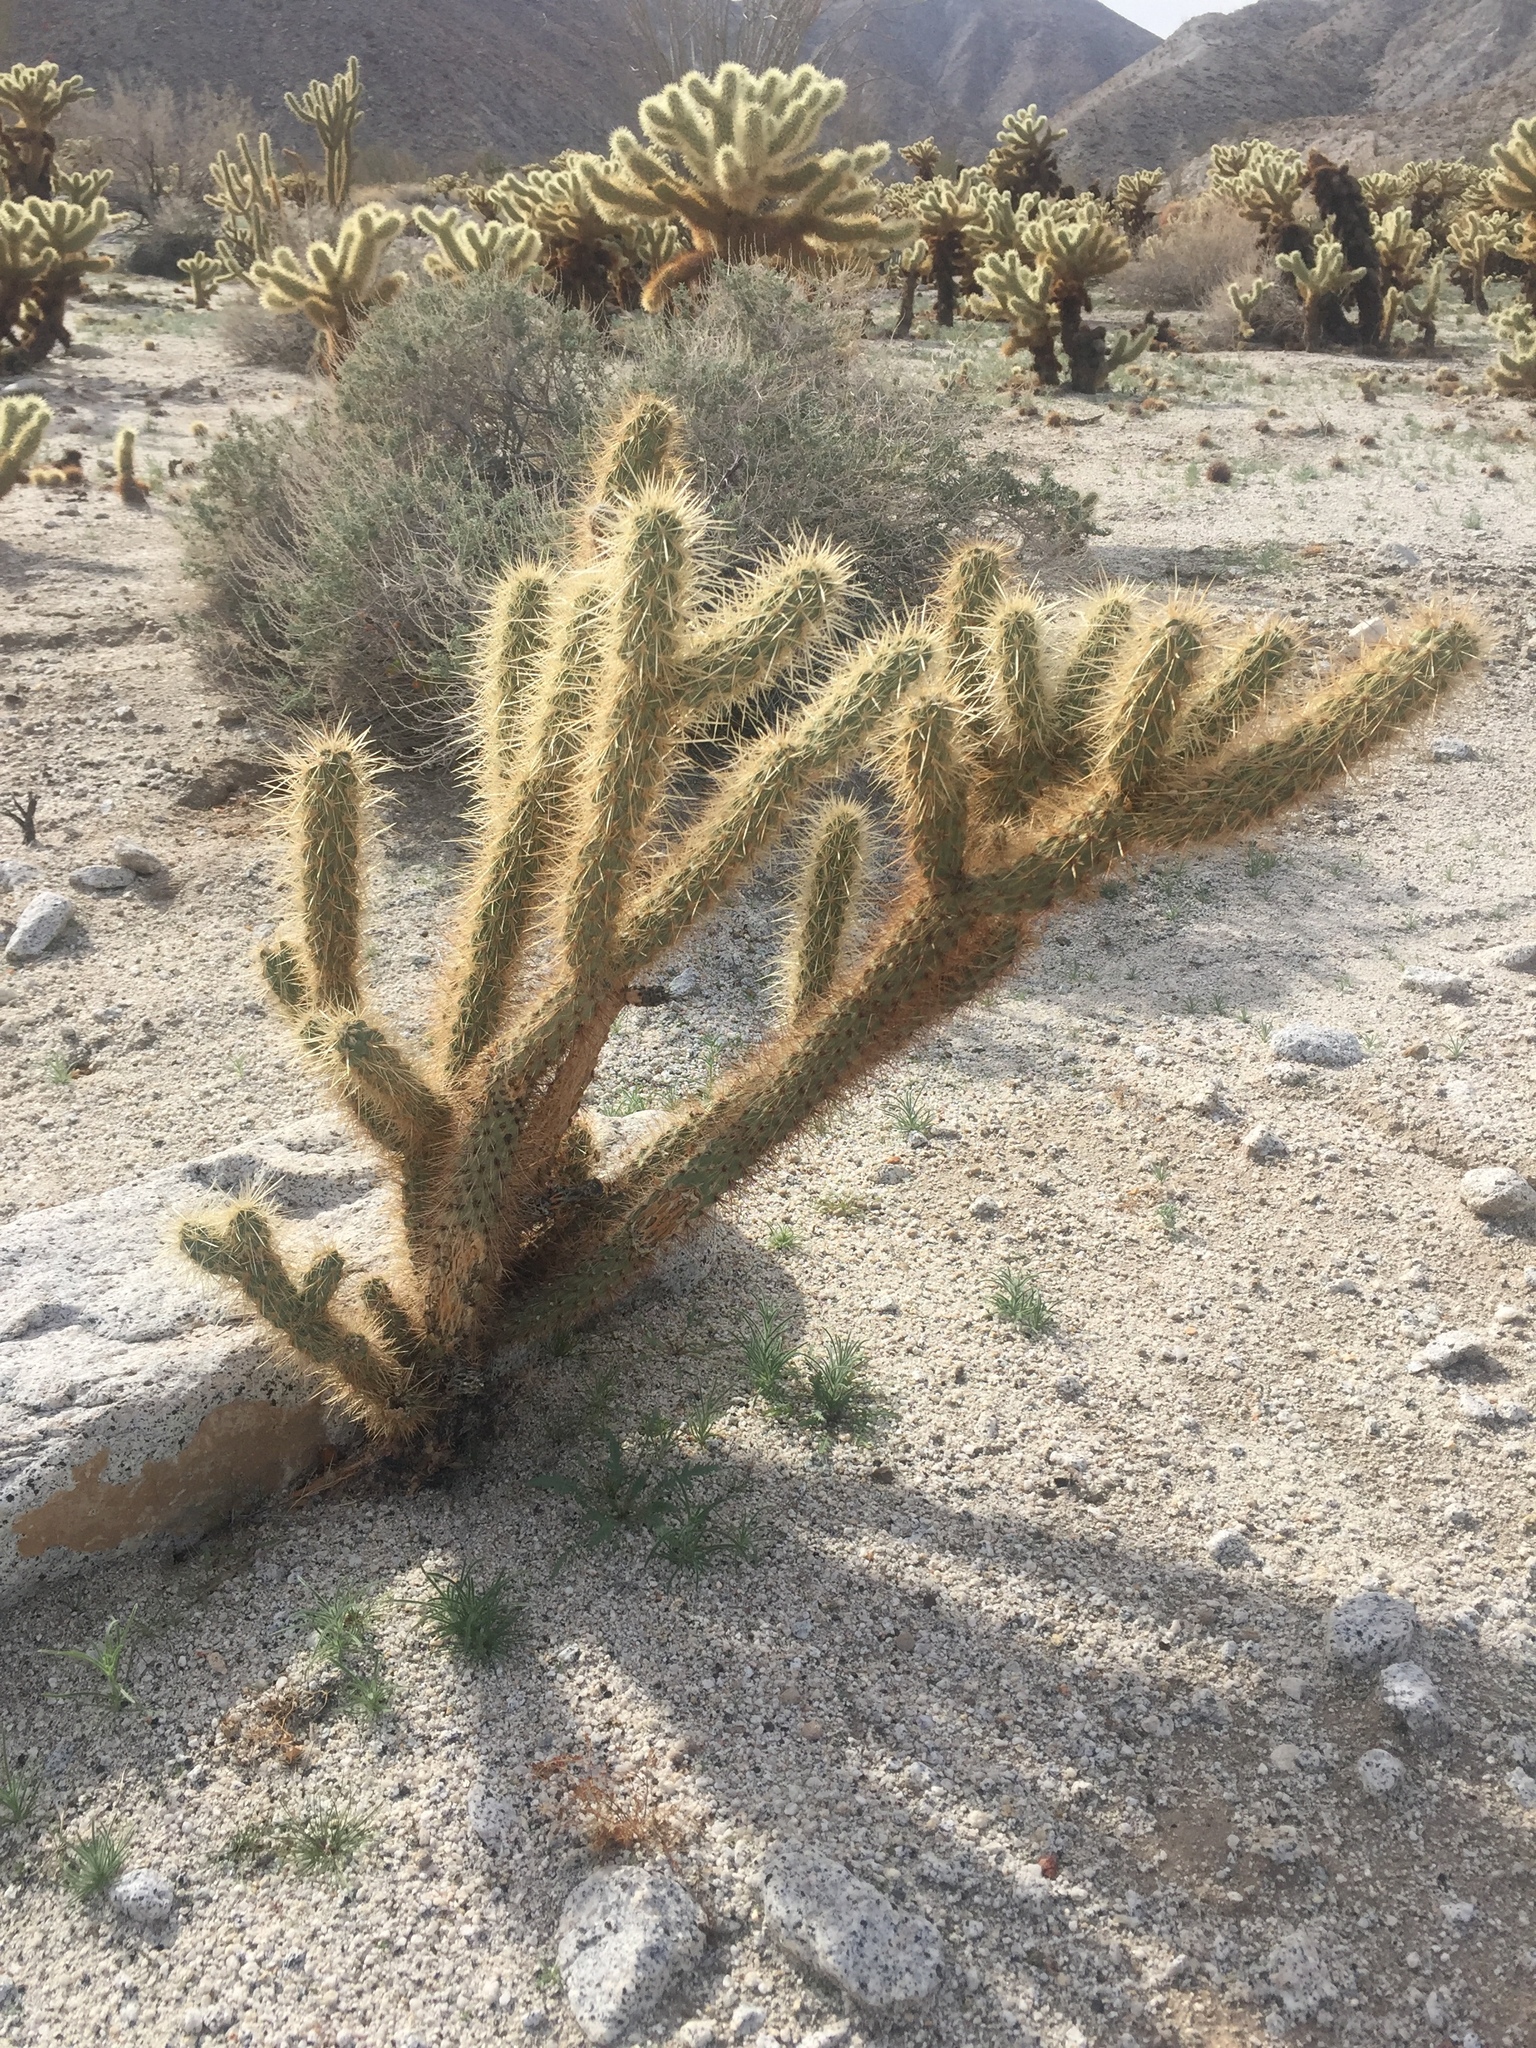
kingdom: Plantae
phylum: Tracheophyta
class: Magnoliopsida
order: Caryophyllales
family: Cactaceae
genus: Cylindropuntia
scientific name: Cylindropuntia ganderi
